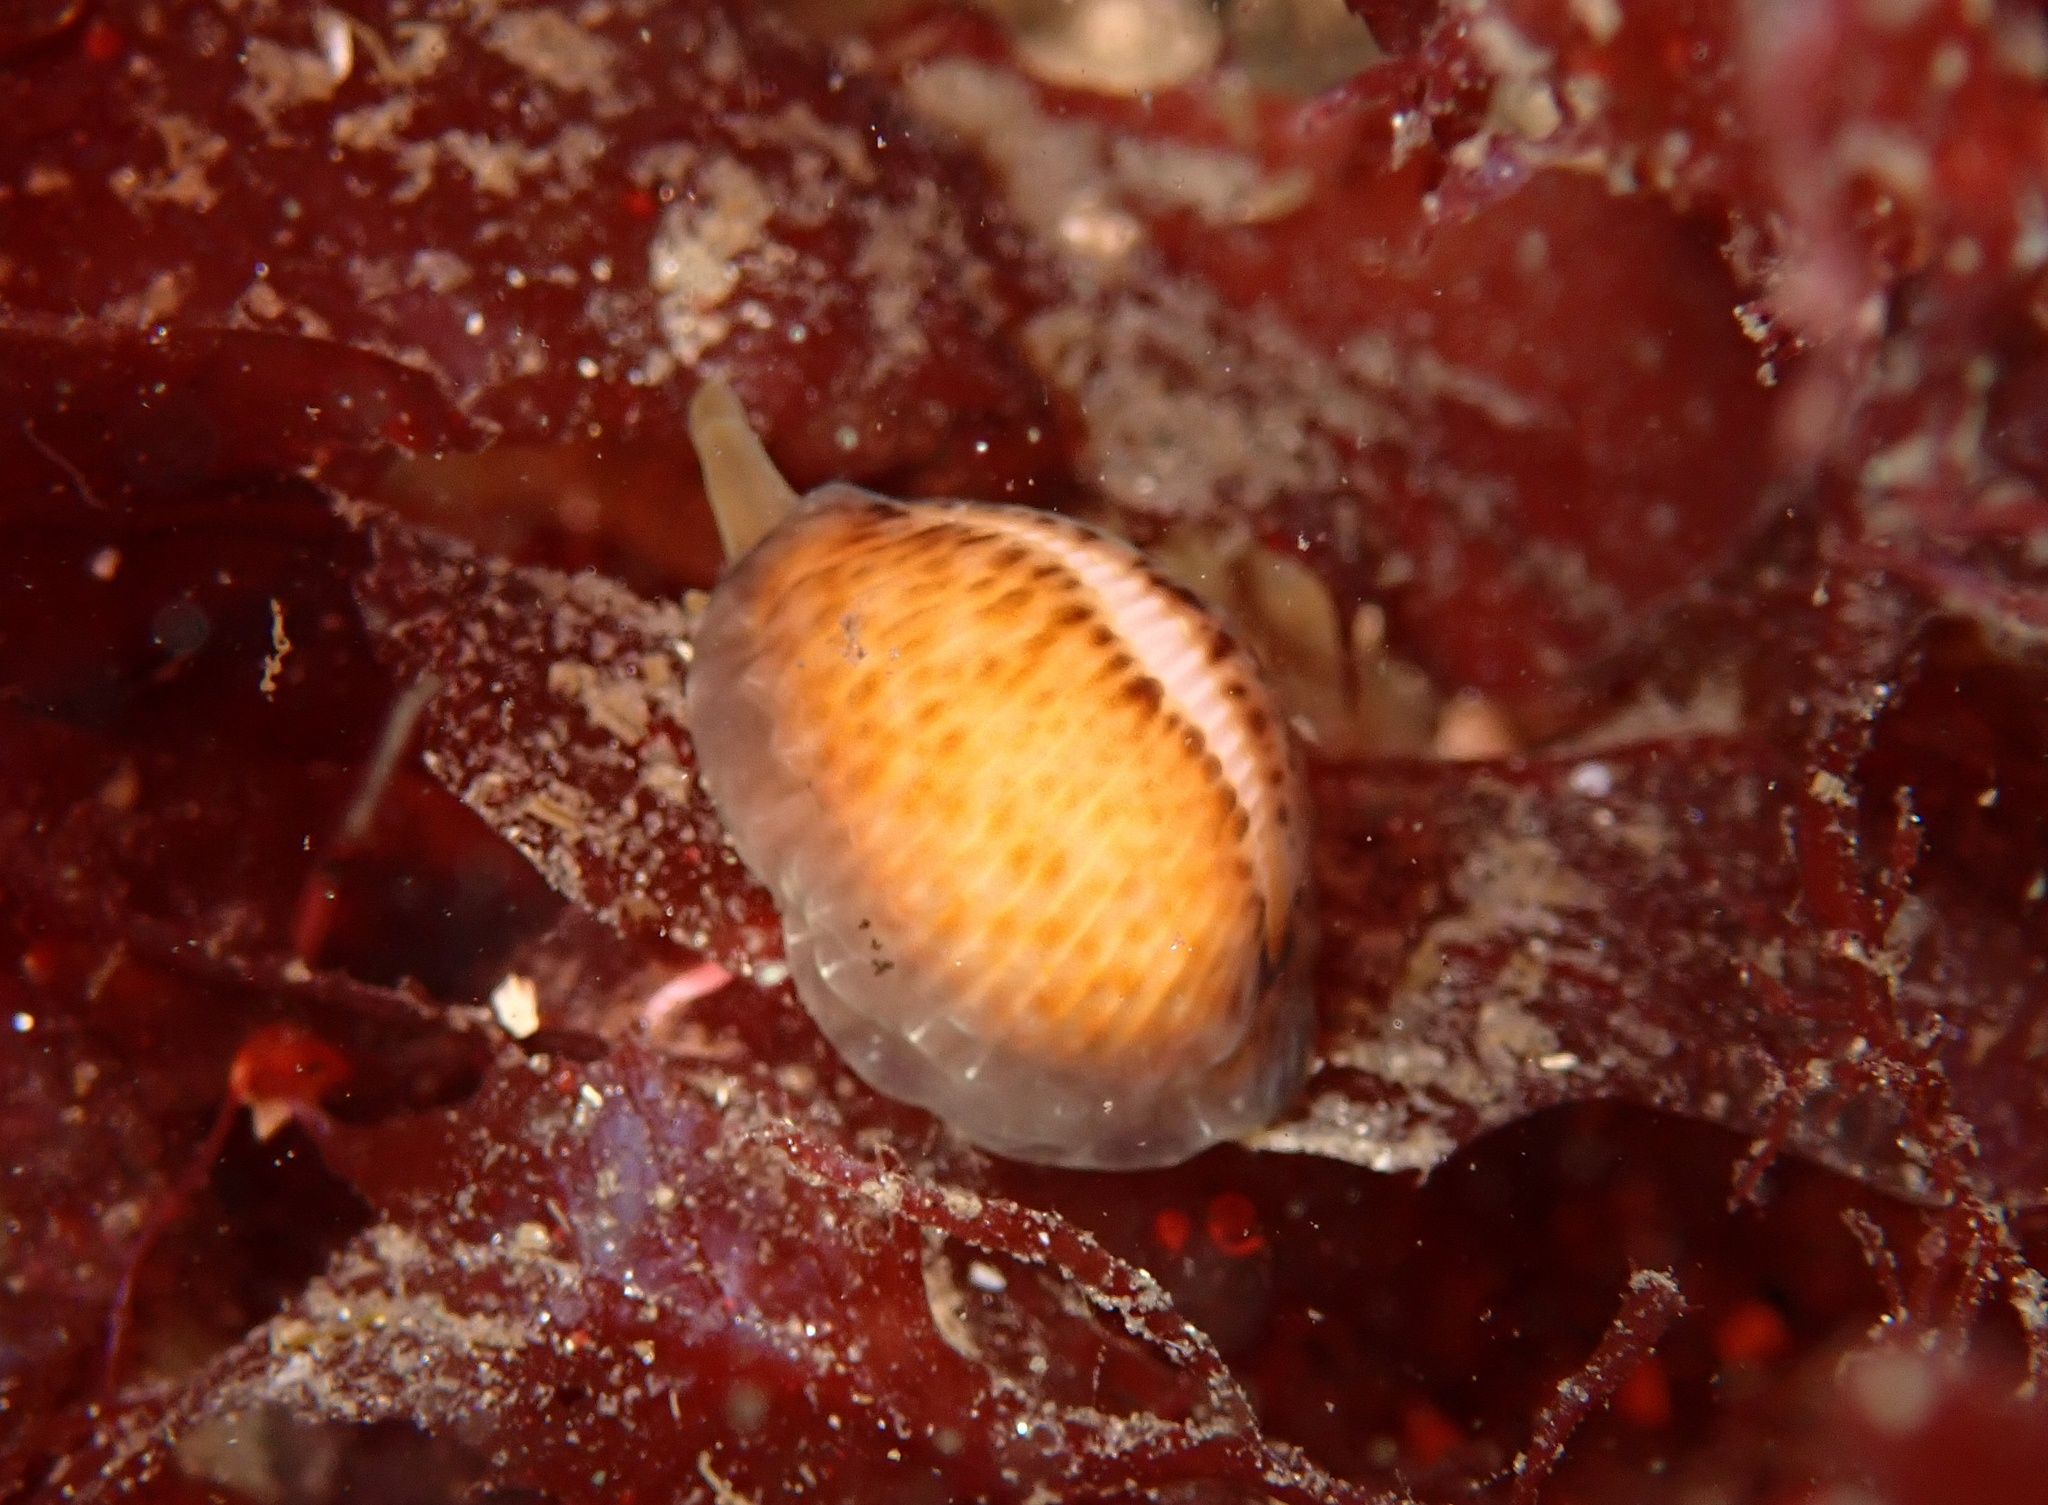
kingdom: Animalia
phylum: Mollusca
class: Gastropoda
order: Littorinimorpha
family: Triviidae
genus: Trivia
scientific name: Trivia arctica
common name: Arctic cowrie
